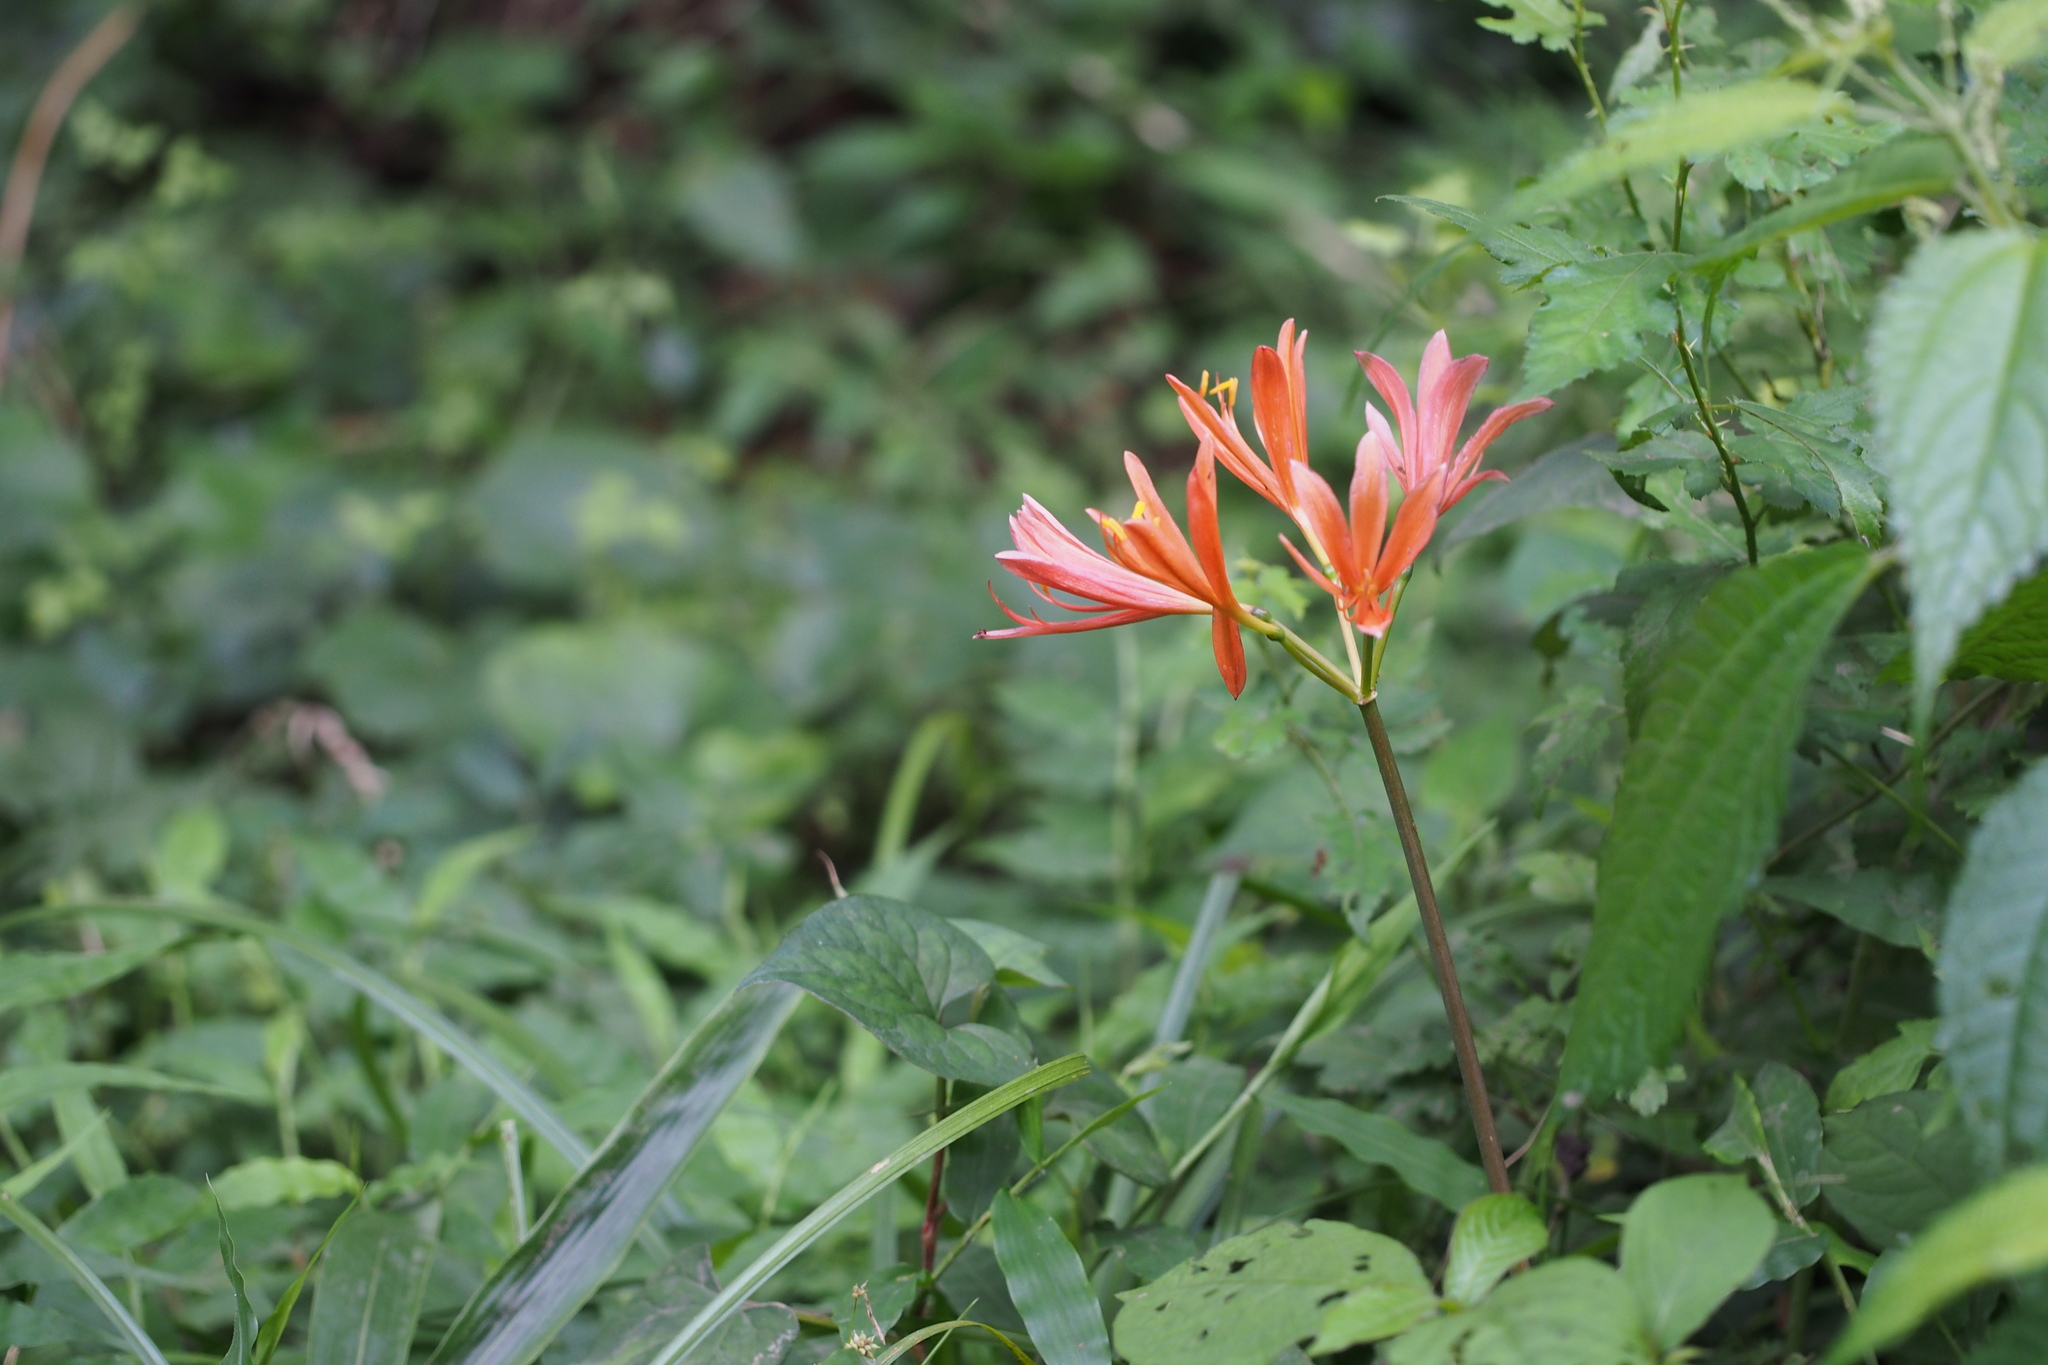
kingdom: Plantae
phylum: Tracheophyta
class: Liliopsida
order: Asparagales
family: Amaryllidaceae
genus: Lycoris
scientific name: Lycoris sanguinea
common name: Spider-lily
